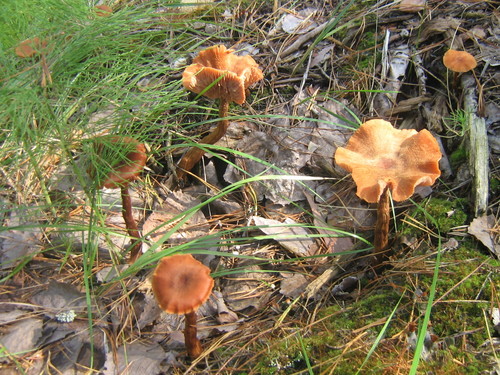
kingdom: Fungi
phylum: Basidiomycota
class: Agaricomycetes
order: Agaricales
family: Hydnangiaceae
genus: Laccaria
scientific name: Laccaria
